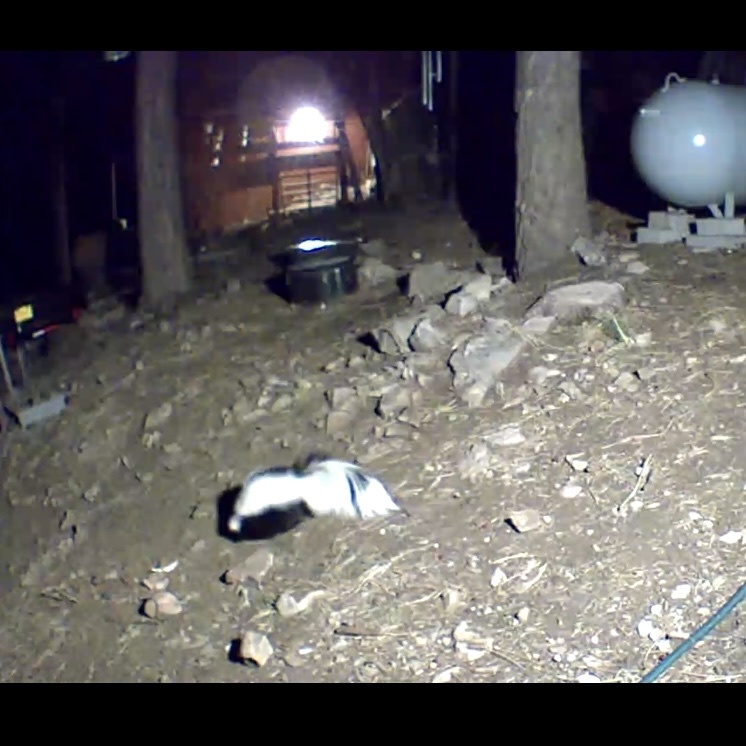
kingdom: Animalia
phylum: Chordata
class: Mammalia
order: Carnivora
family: Mephitidae
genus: Mephitis
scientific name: Mephitis mephitis
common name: Striped skunk
